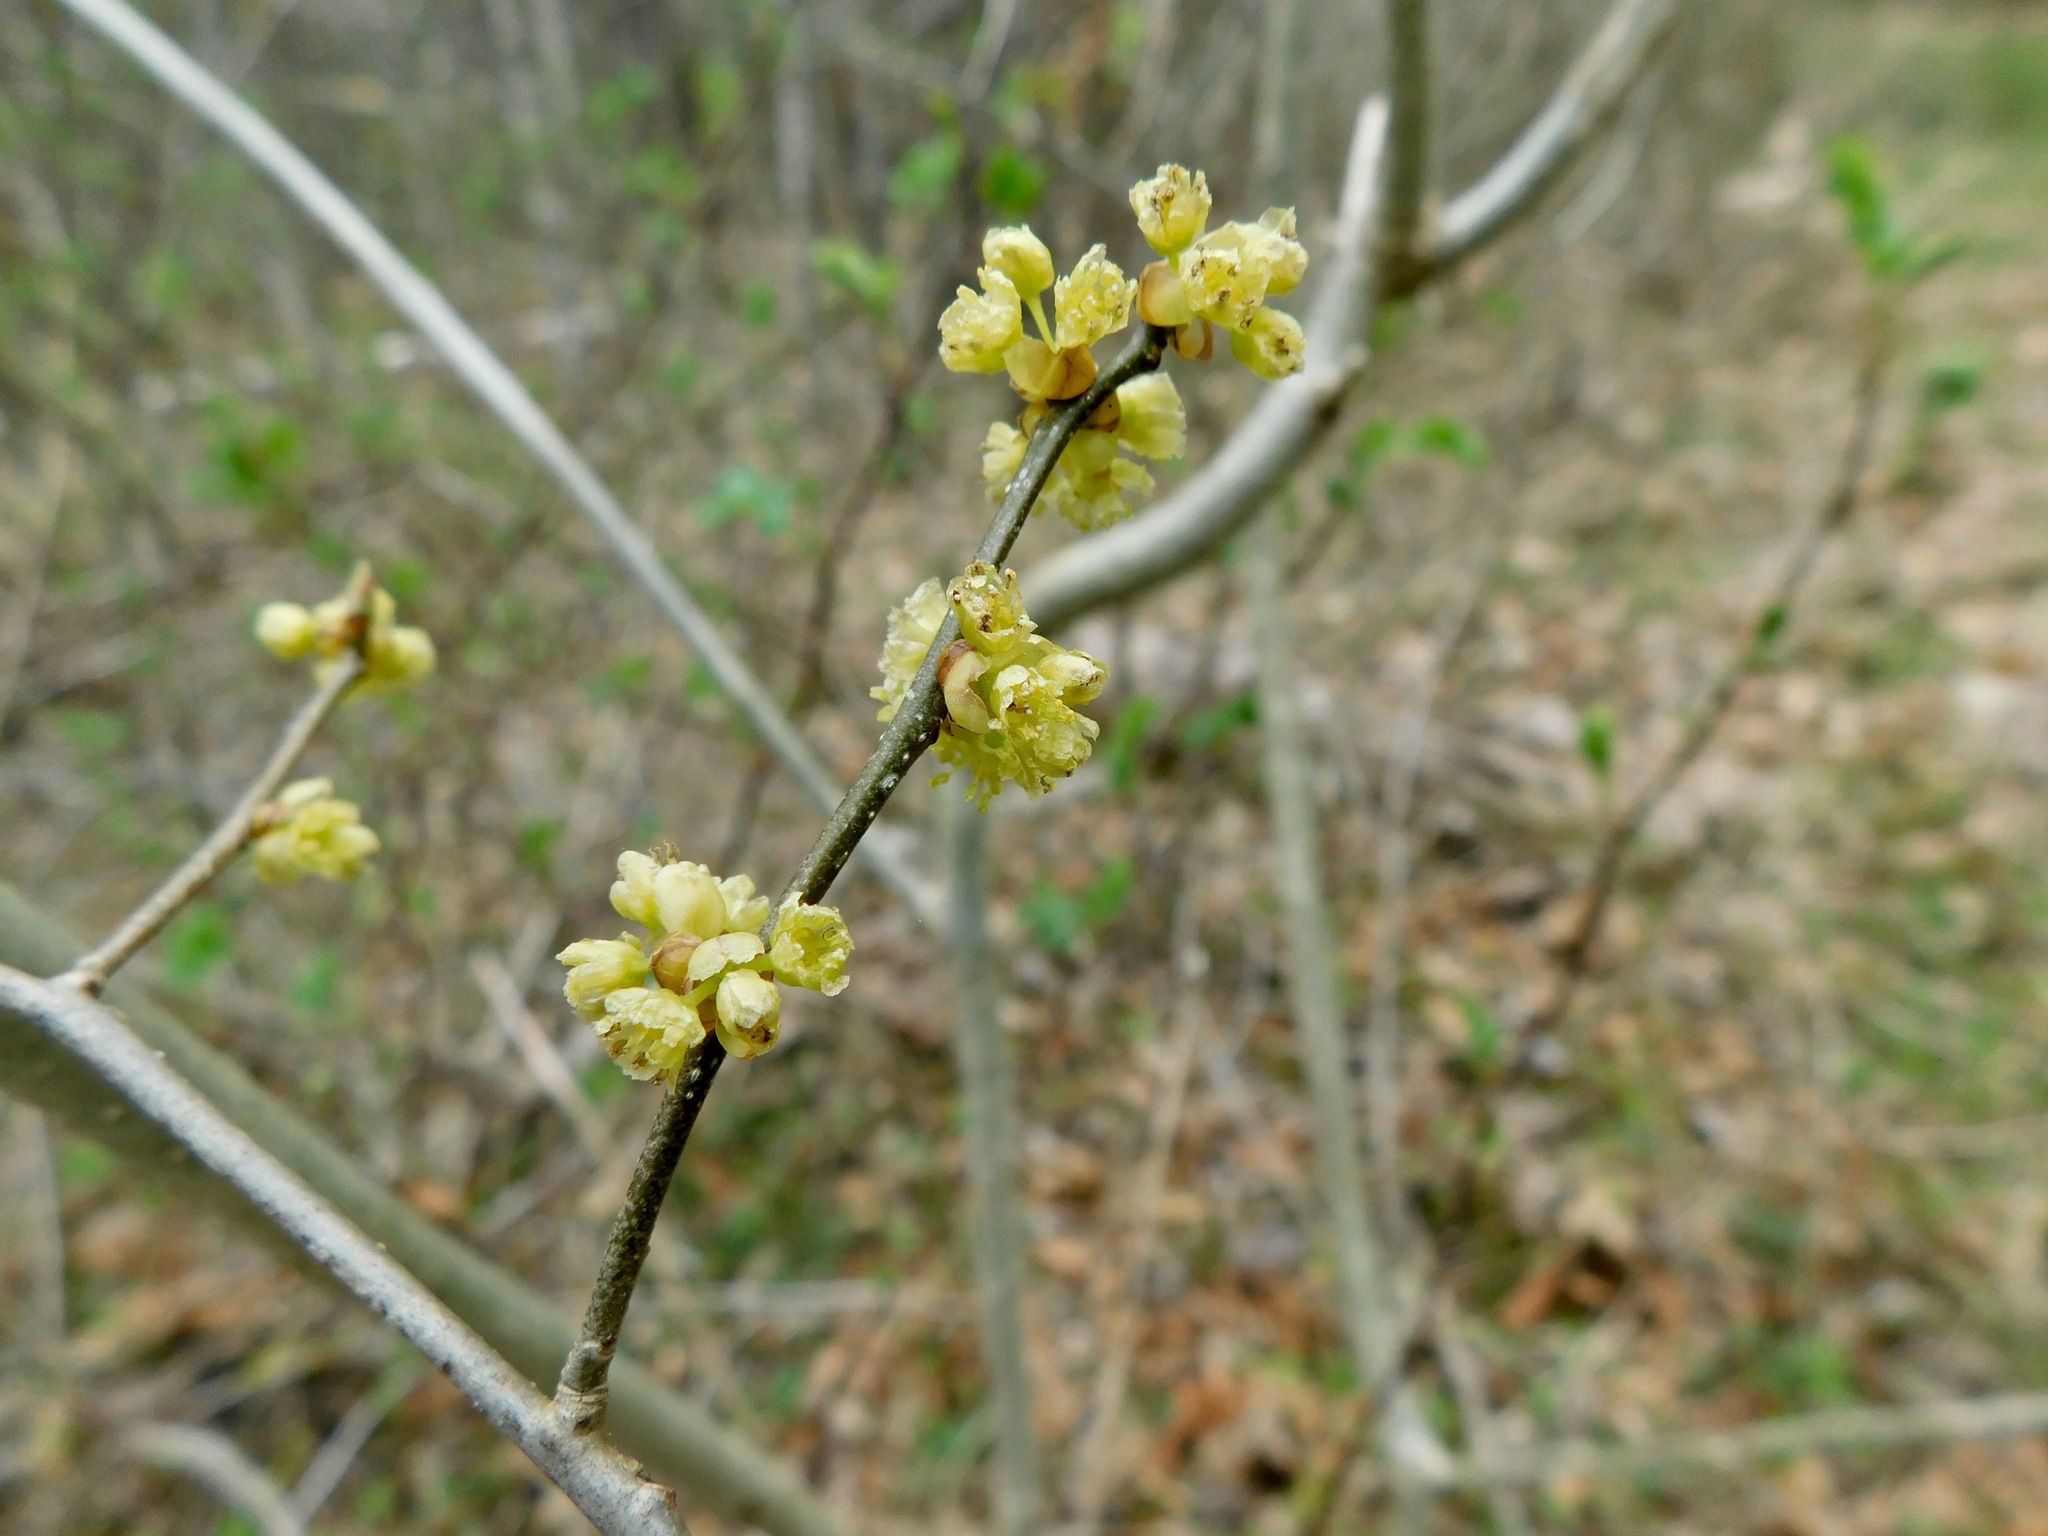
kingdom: Plantae
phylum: Tracheophyta
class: Magnoliopsida
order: Laurales
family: Lauraceae
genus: Lindera
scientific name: Lindera benzoin
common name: Spicebush
